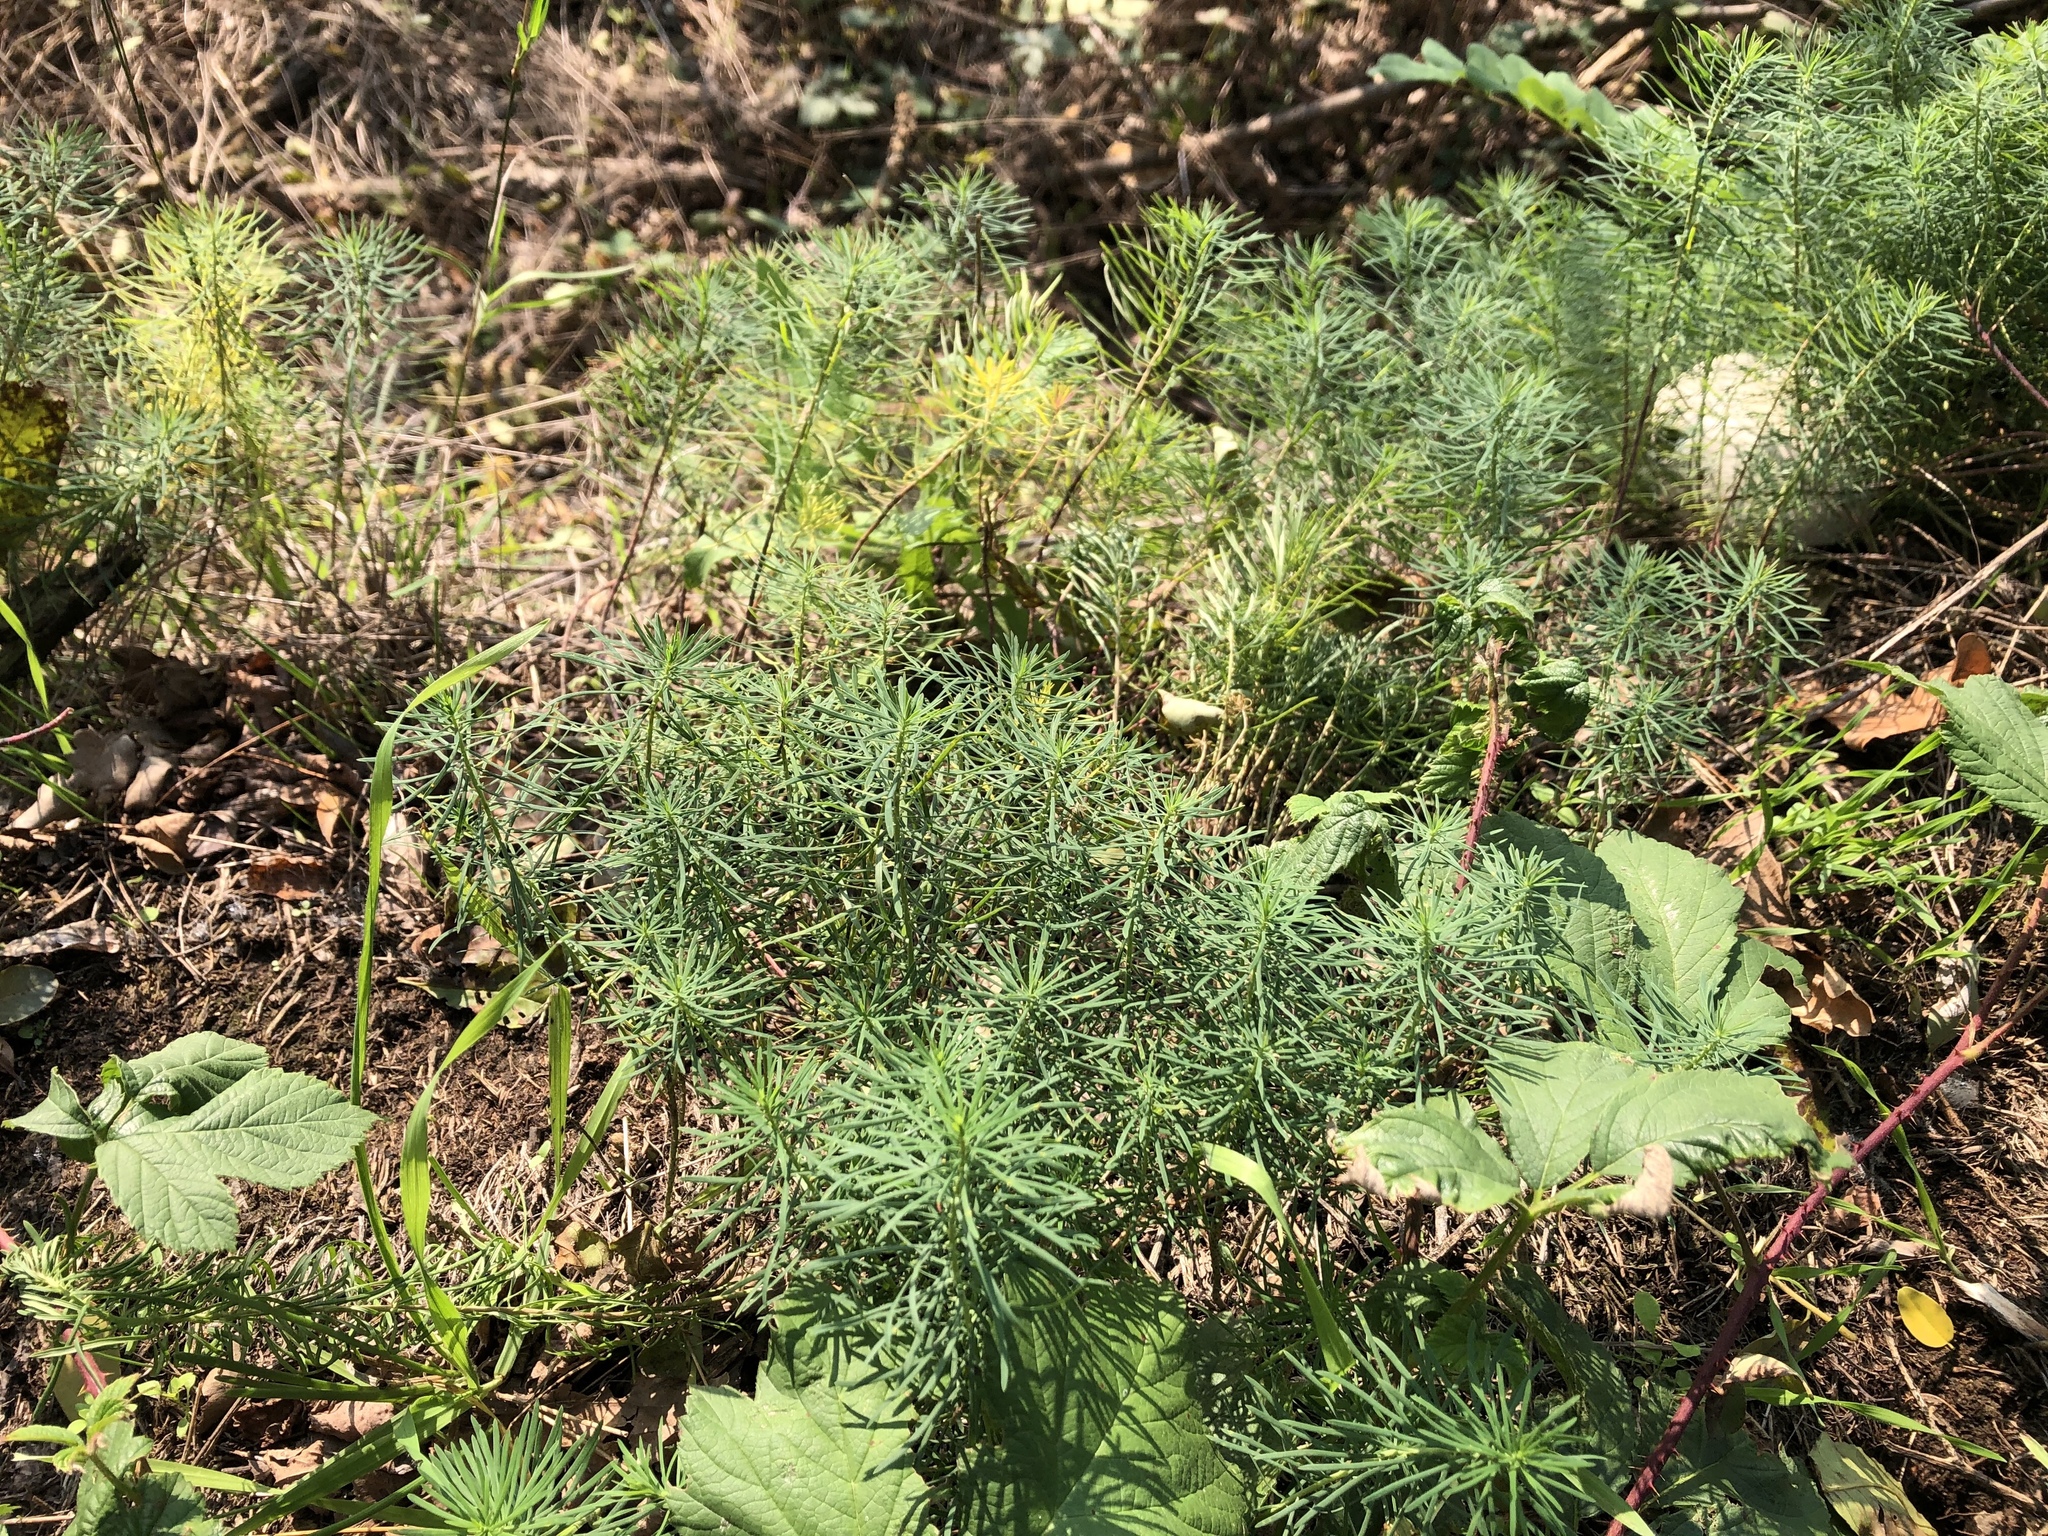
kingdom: Plantae
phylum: Tracheophyta
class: Magnoliopsida
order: Malpighiales
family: Euphorbiaceae
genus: Euphorbia
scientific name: Euphorbia cyparissias
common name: Cypress spurge
